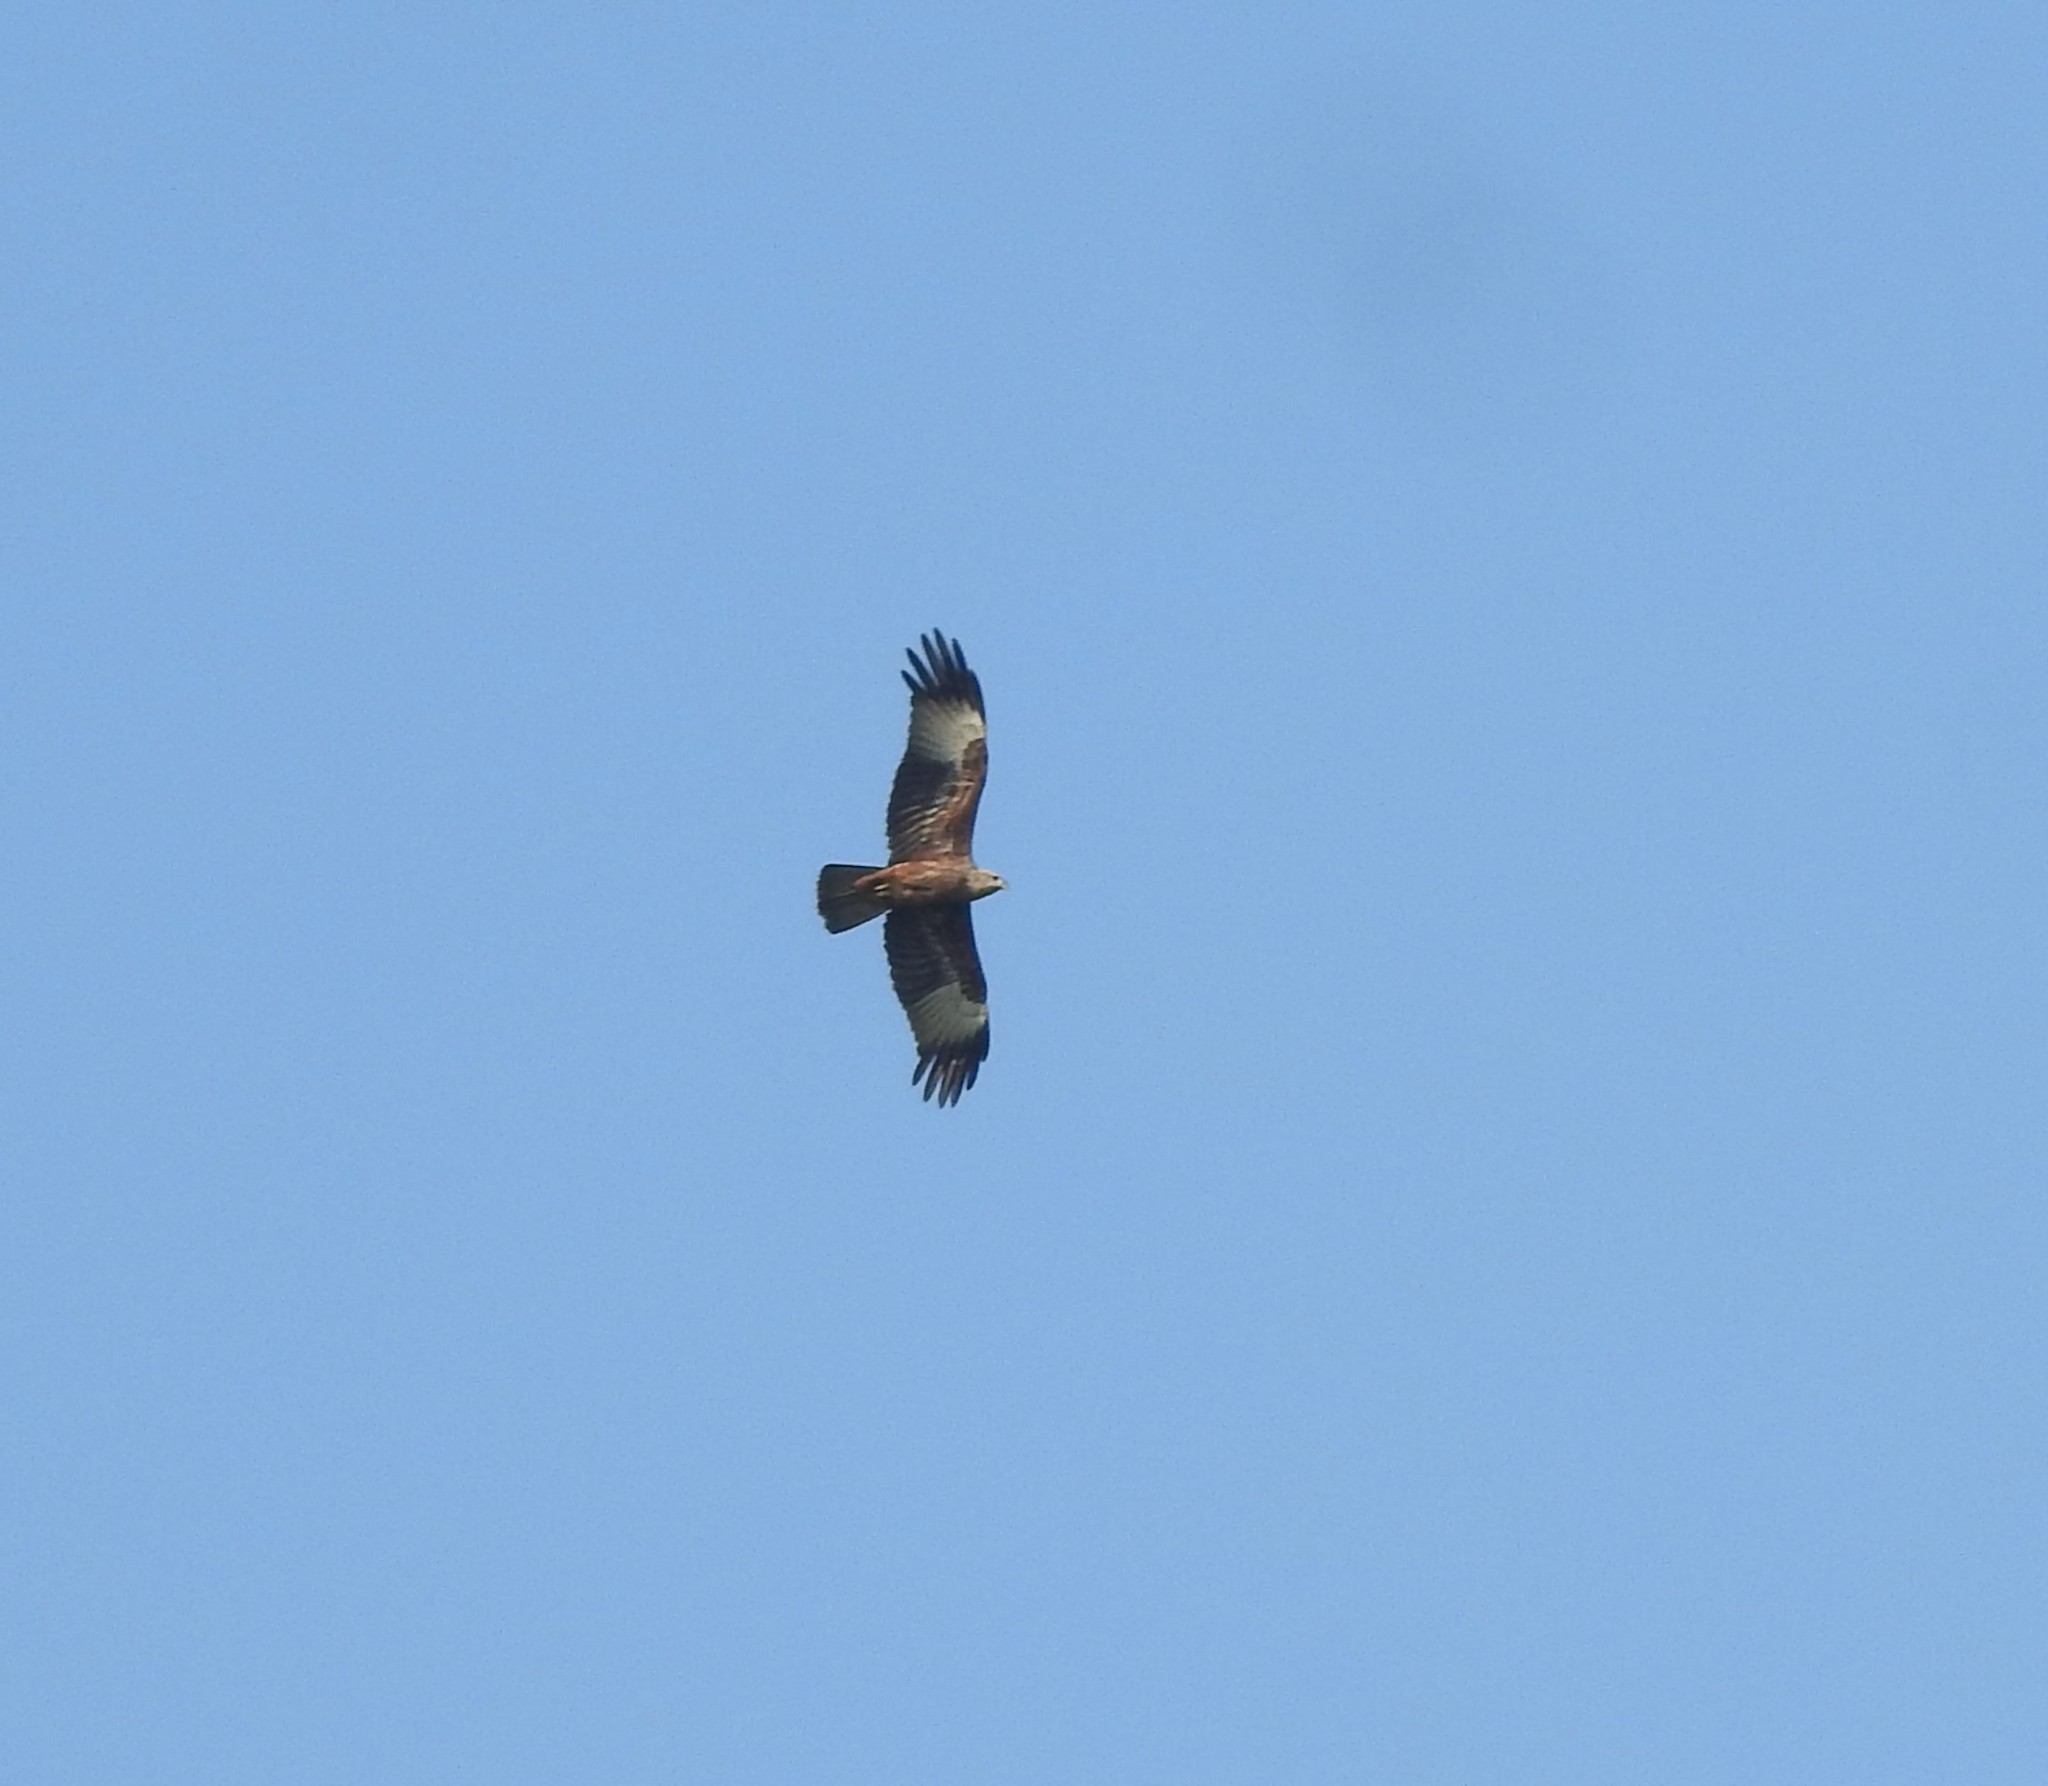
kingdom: Animalia
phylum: Chordata
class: Aves
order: Accipitriformes
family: Accipitridae
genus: Haliastur
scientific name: Haliastur indus
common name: Brahminy kite
